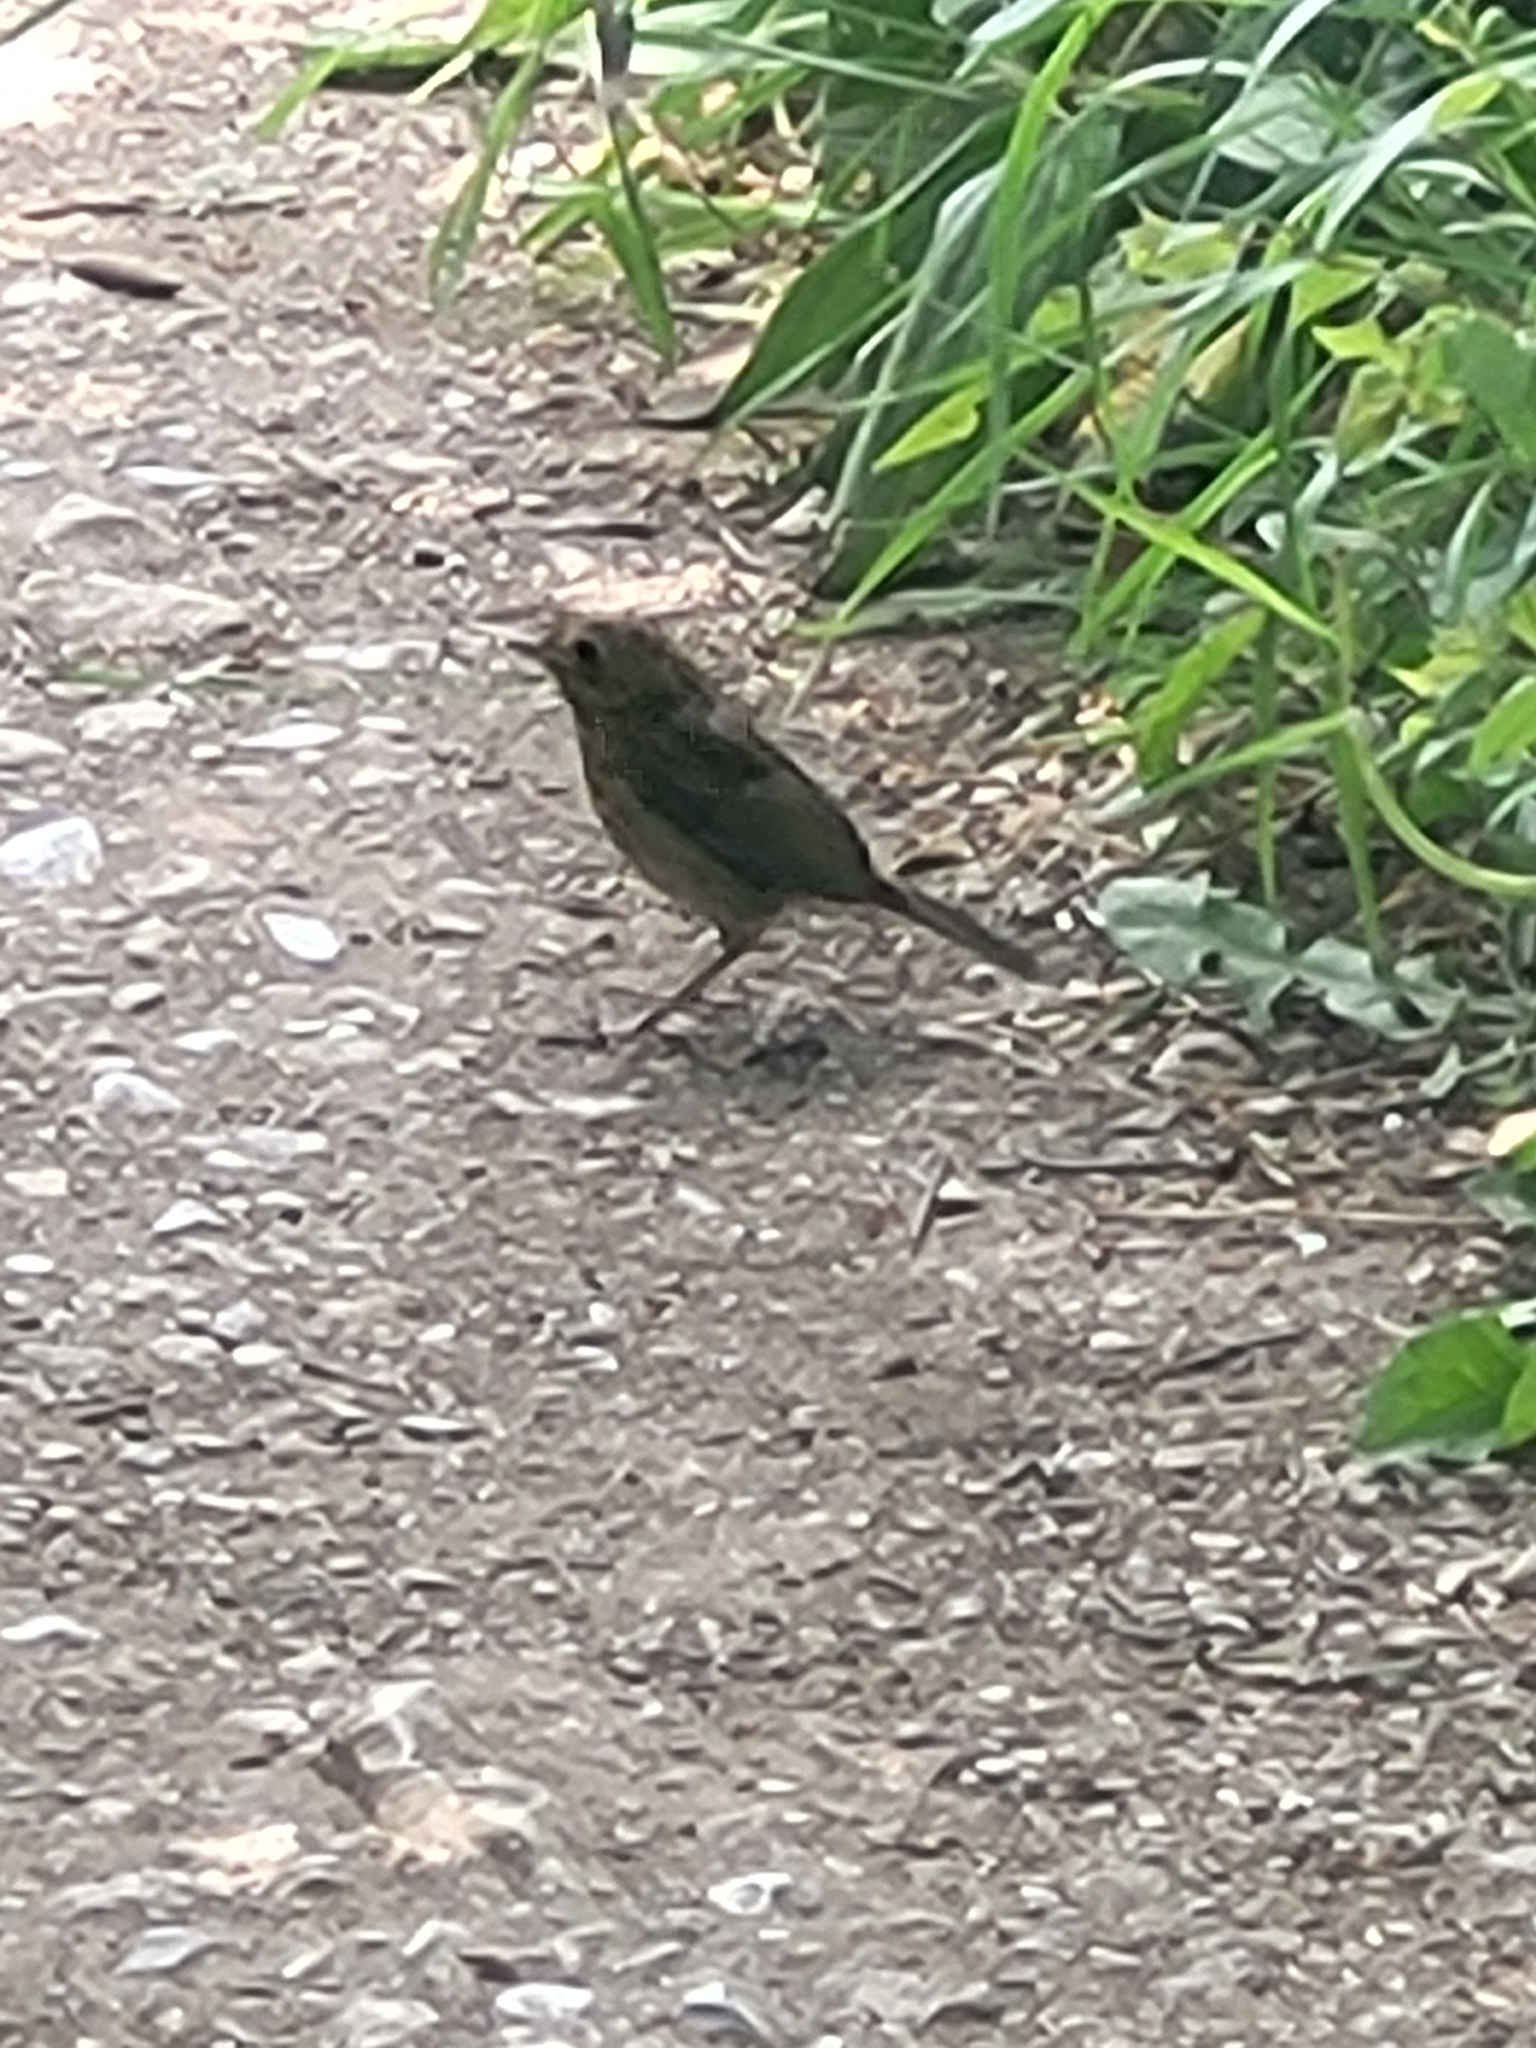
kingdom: Animalia
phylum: Chordata
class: Aves
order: Passeriformes
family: Muscicapidae
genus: Erithacus
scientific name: Erithacus rubecula
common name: European robin
